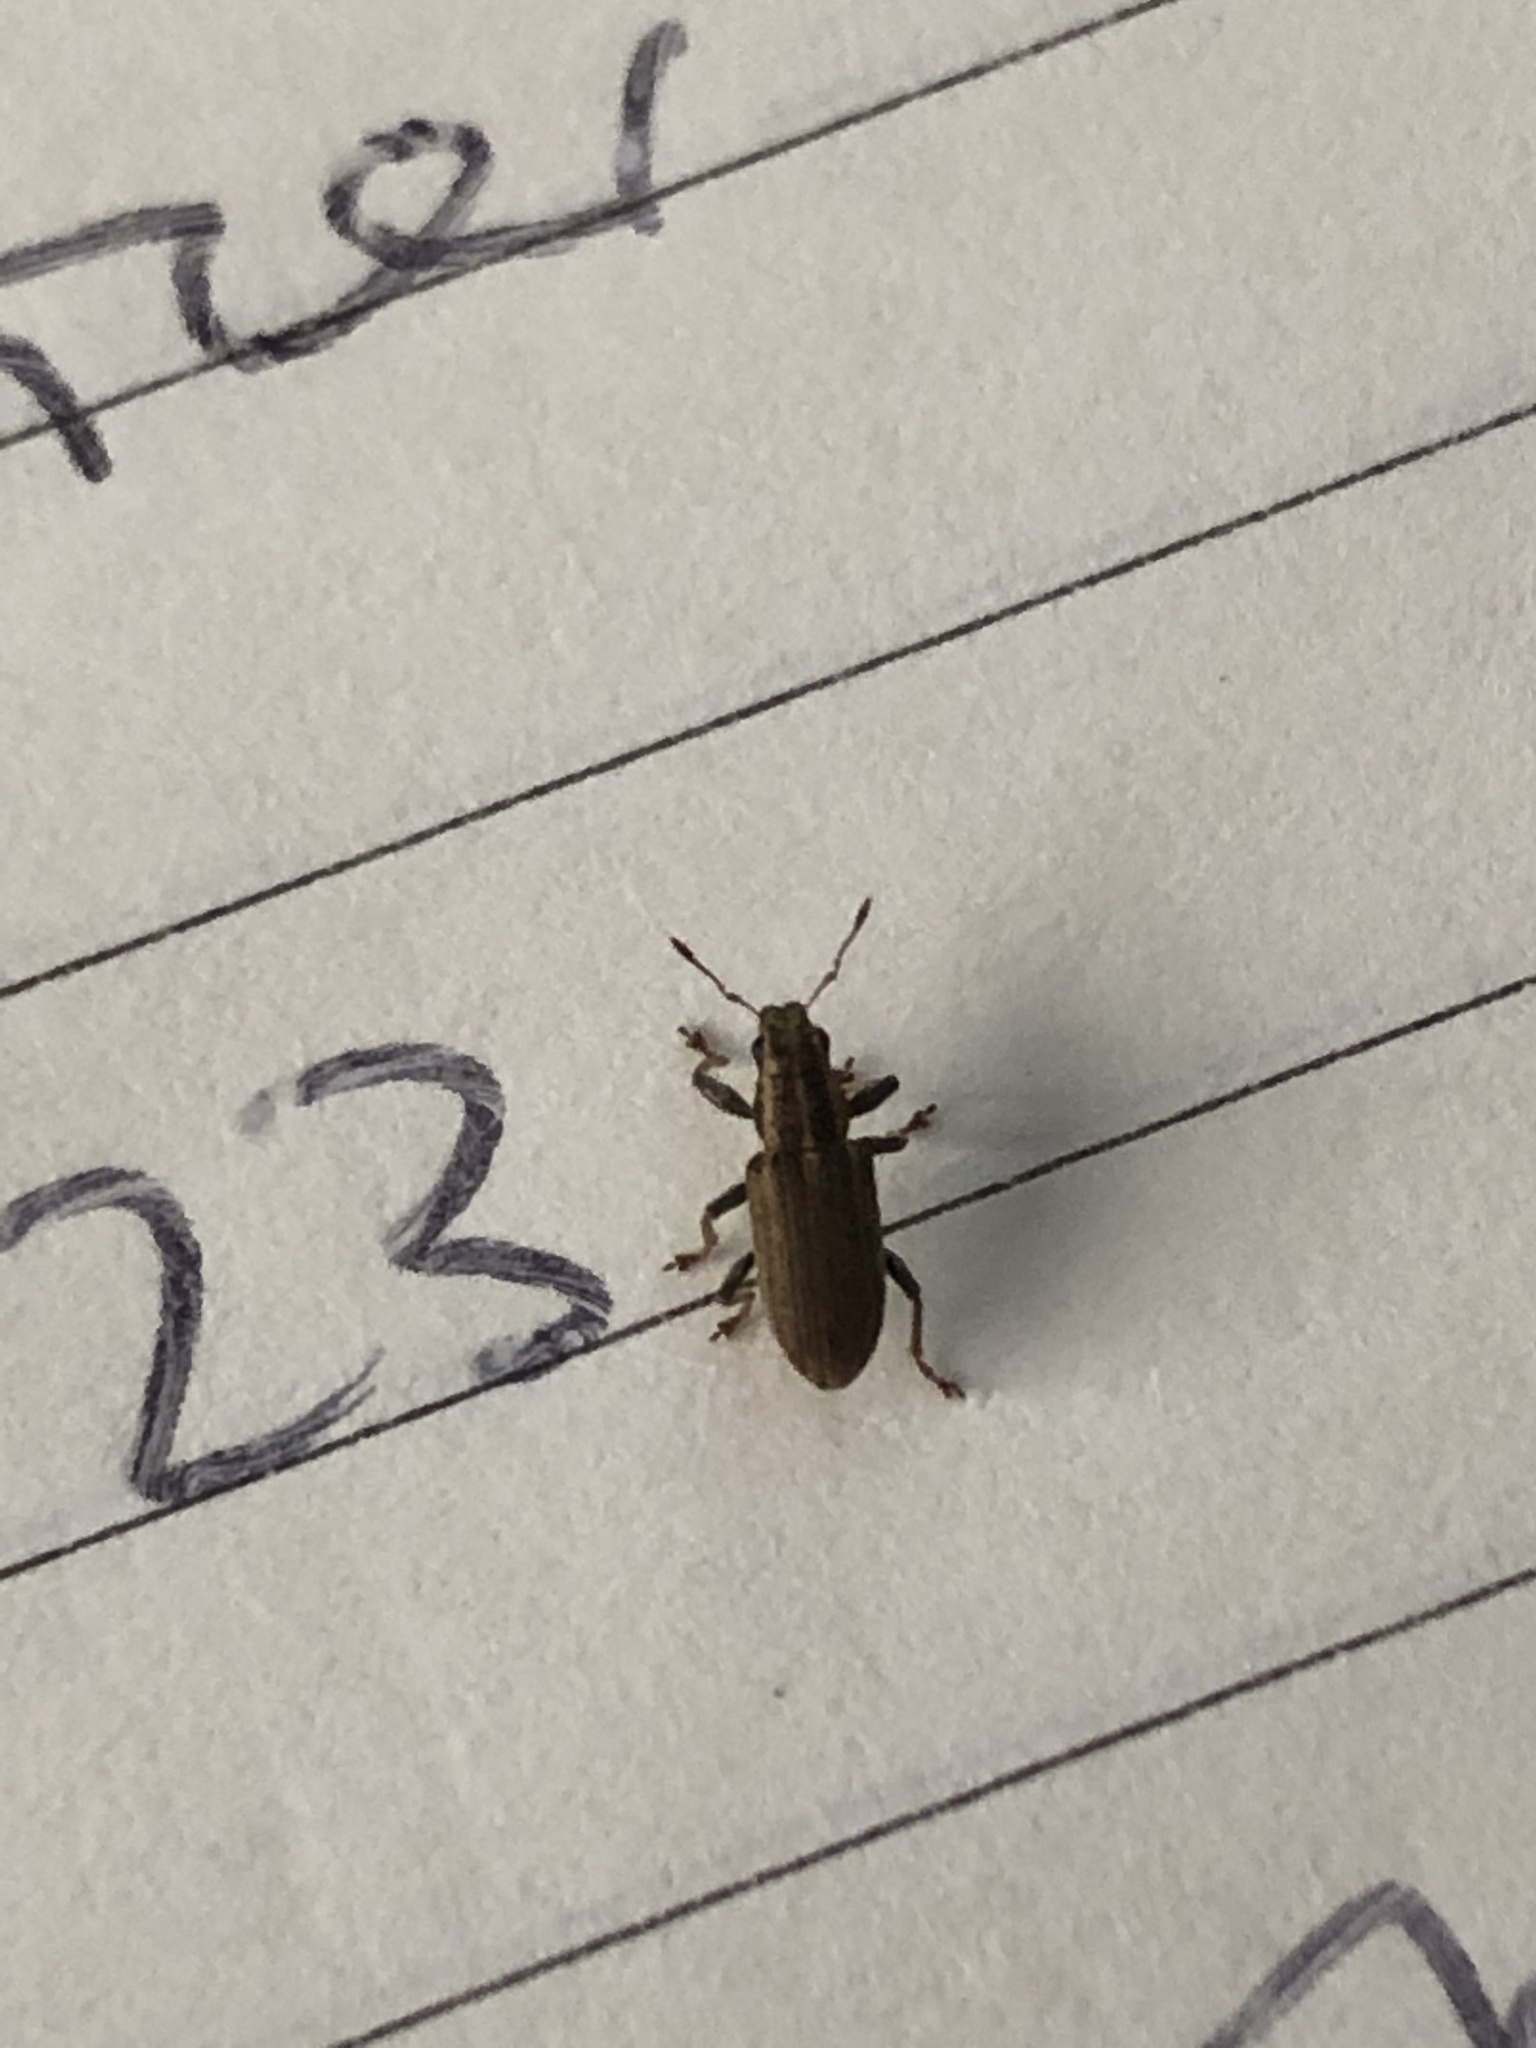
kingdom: Animalia
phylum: Arthropoda
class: Insecta
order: Coleoptera
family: Curculionidae
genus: Sitona
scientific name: Sitona lineatus
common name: Weevil
